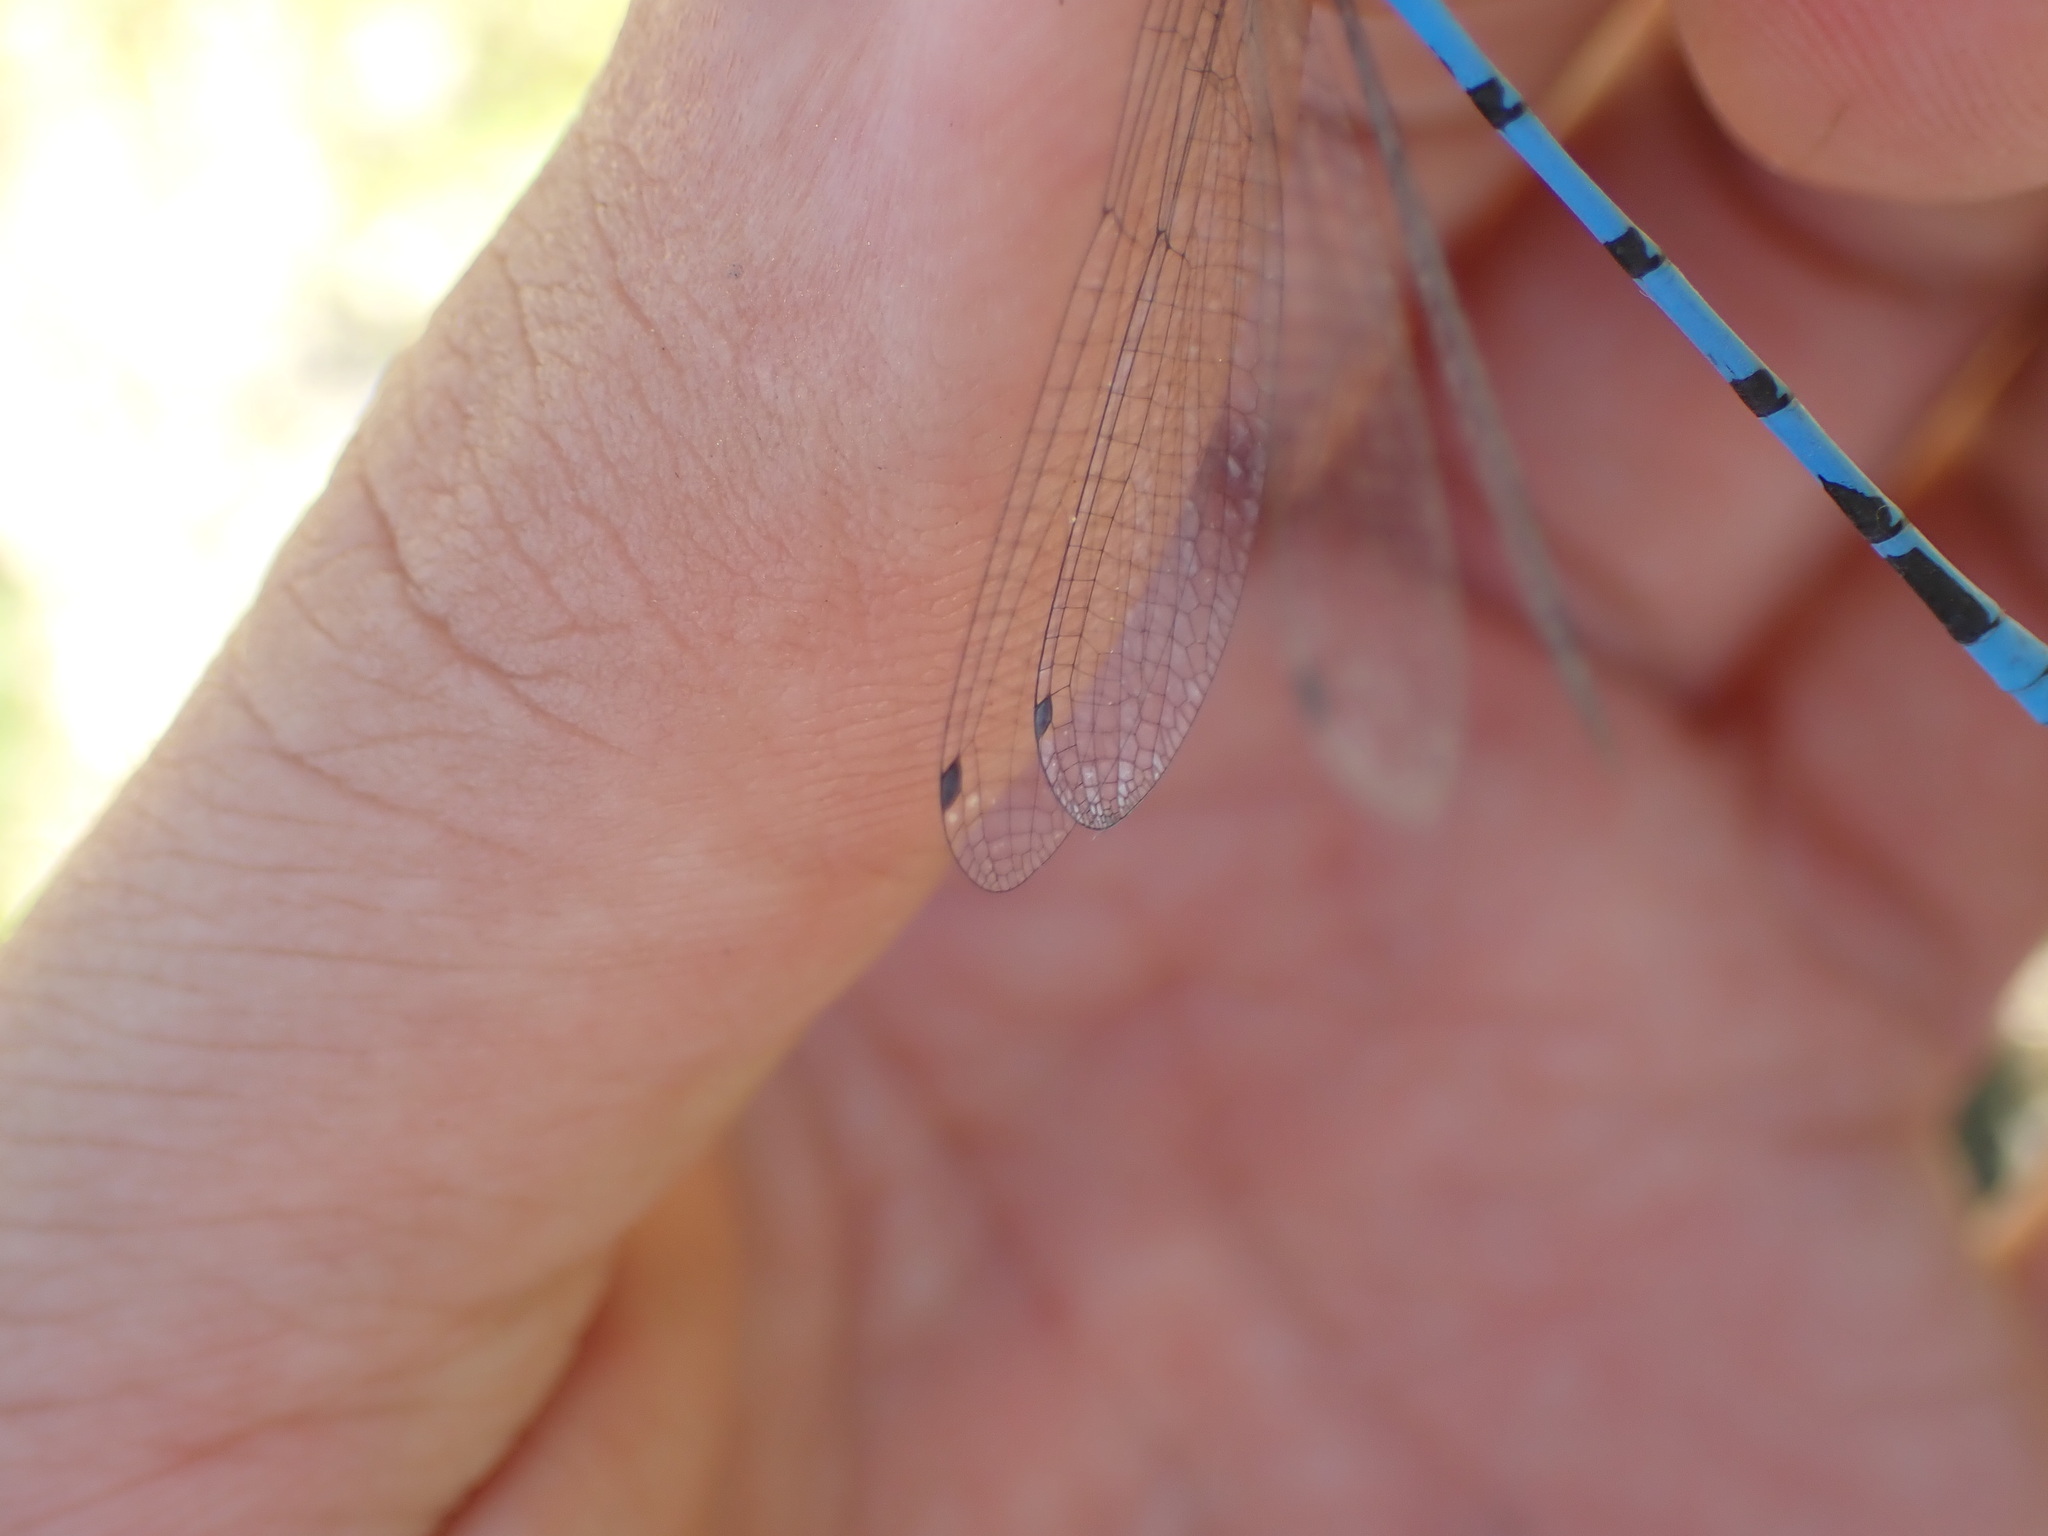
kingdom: Animalia
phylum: Arthropoda
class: Insecta
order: Odonata
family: Coenagrionidae
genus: Enallagma
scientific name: Enallagma cyathigerum
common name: Common blue damselfly
